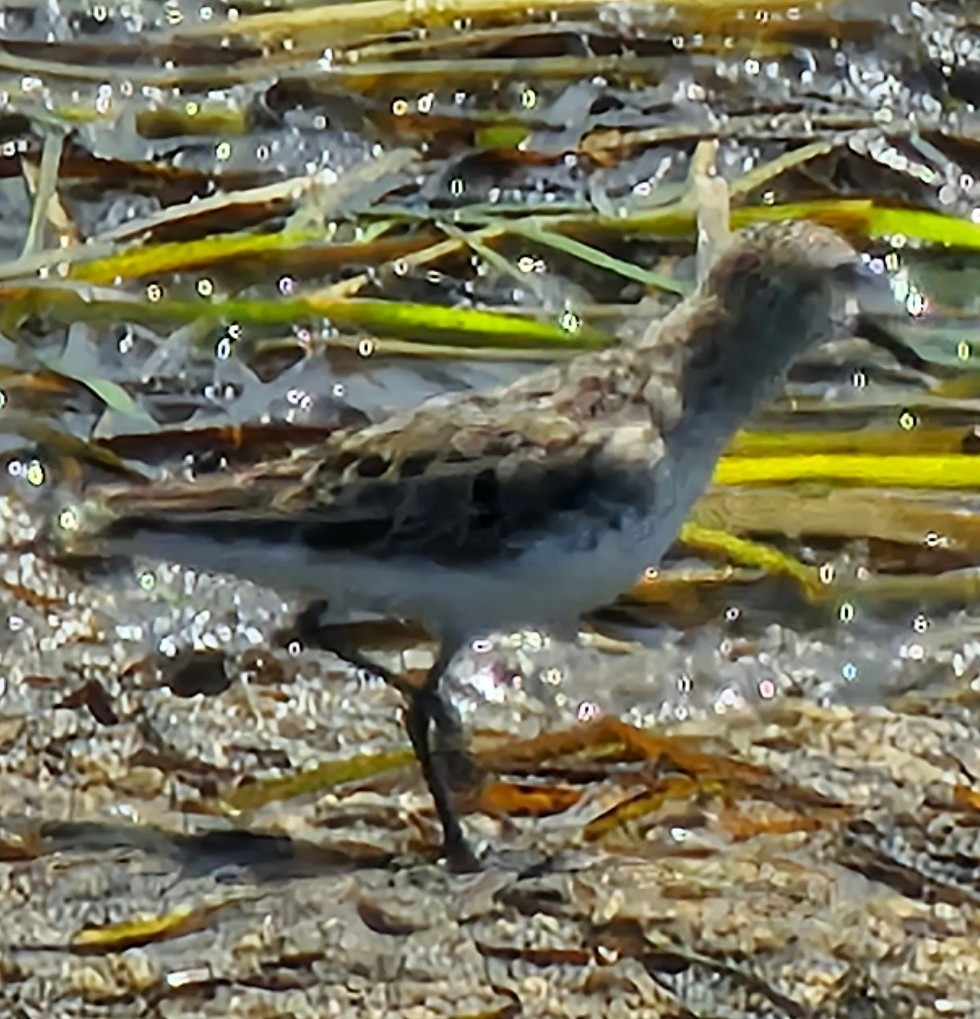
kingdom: Animalia
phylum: Chordata
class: Aves
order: Charadriiformes
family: Scolopacidae
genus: Calidris
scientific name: Calidris pusilla
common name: Semipalmated sandpiper
